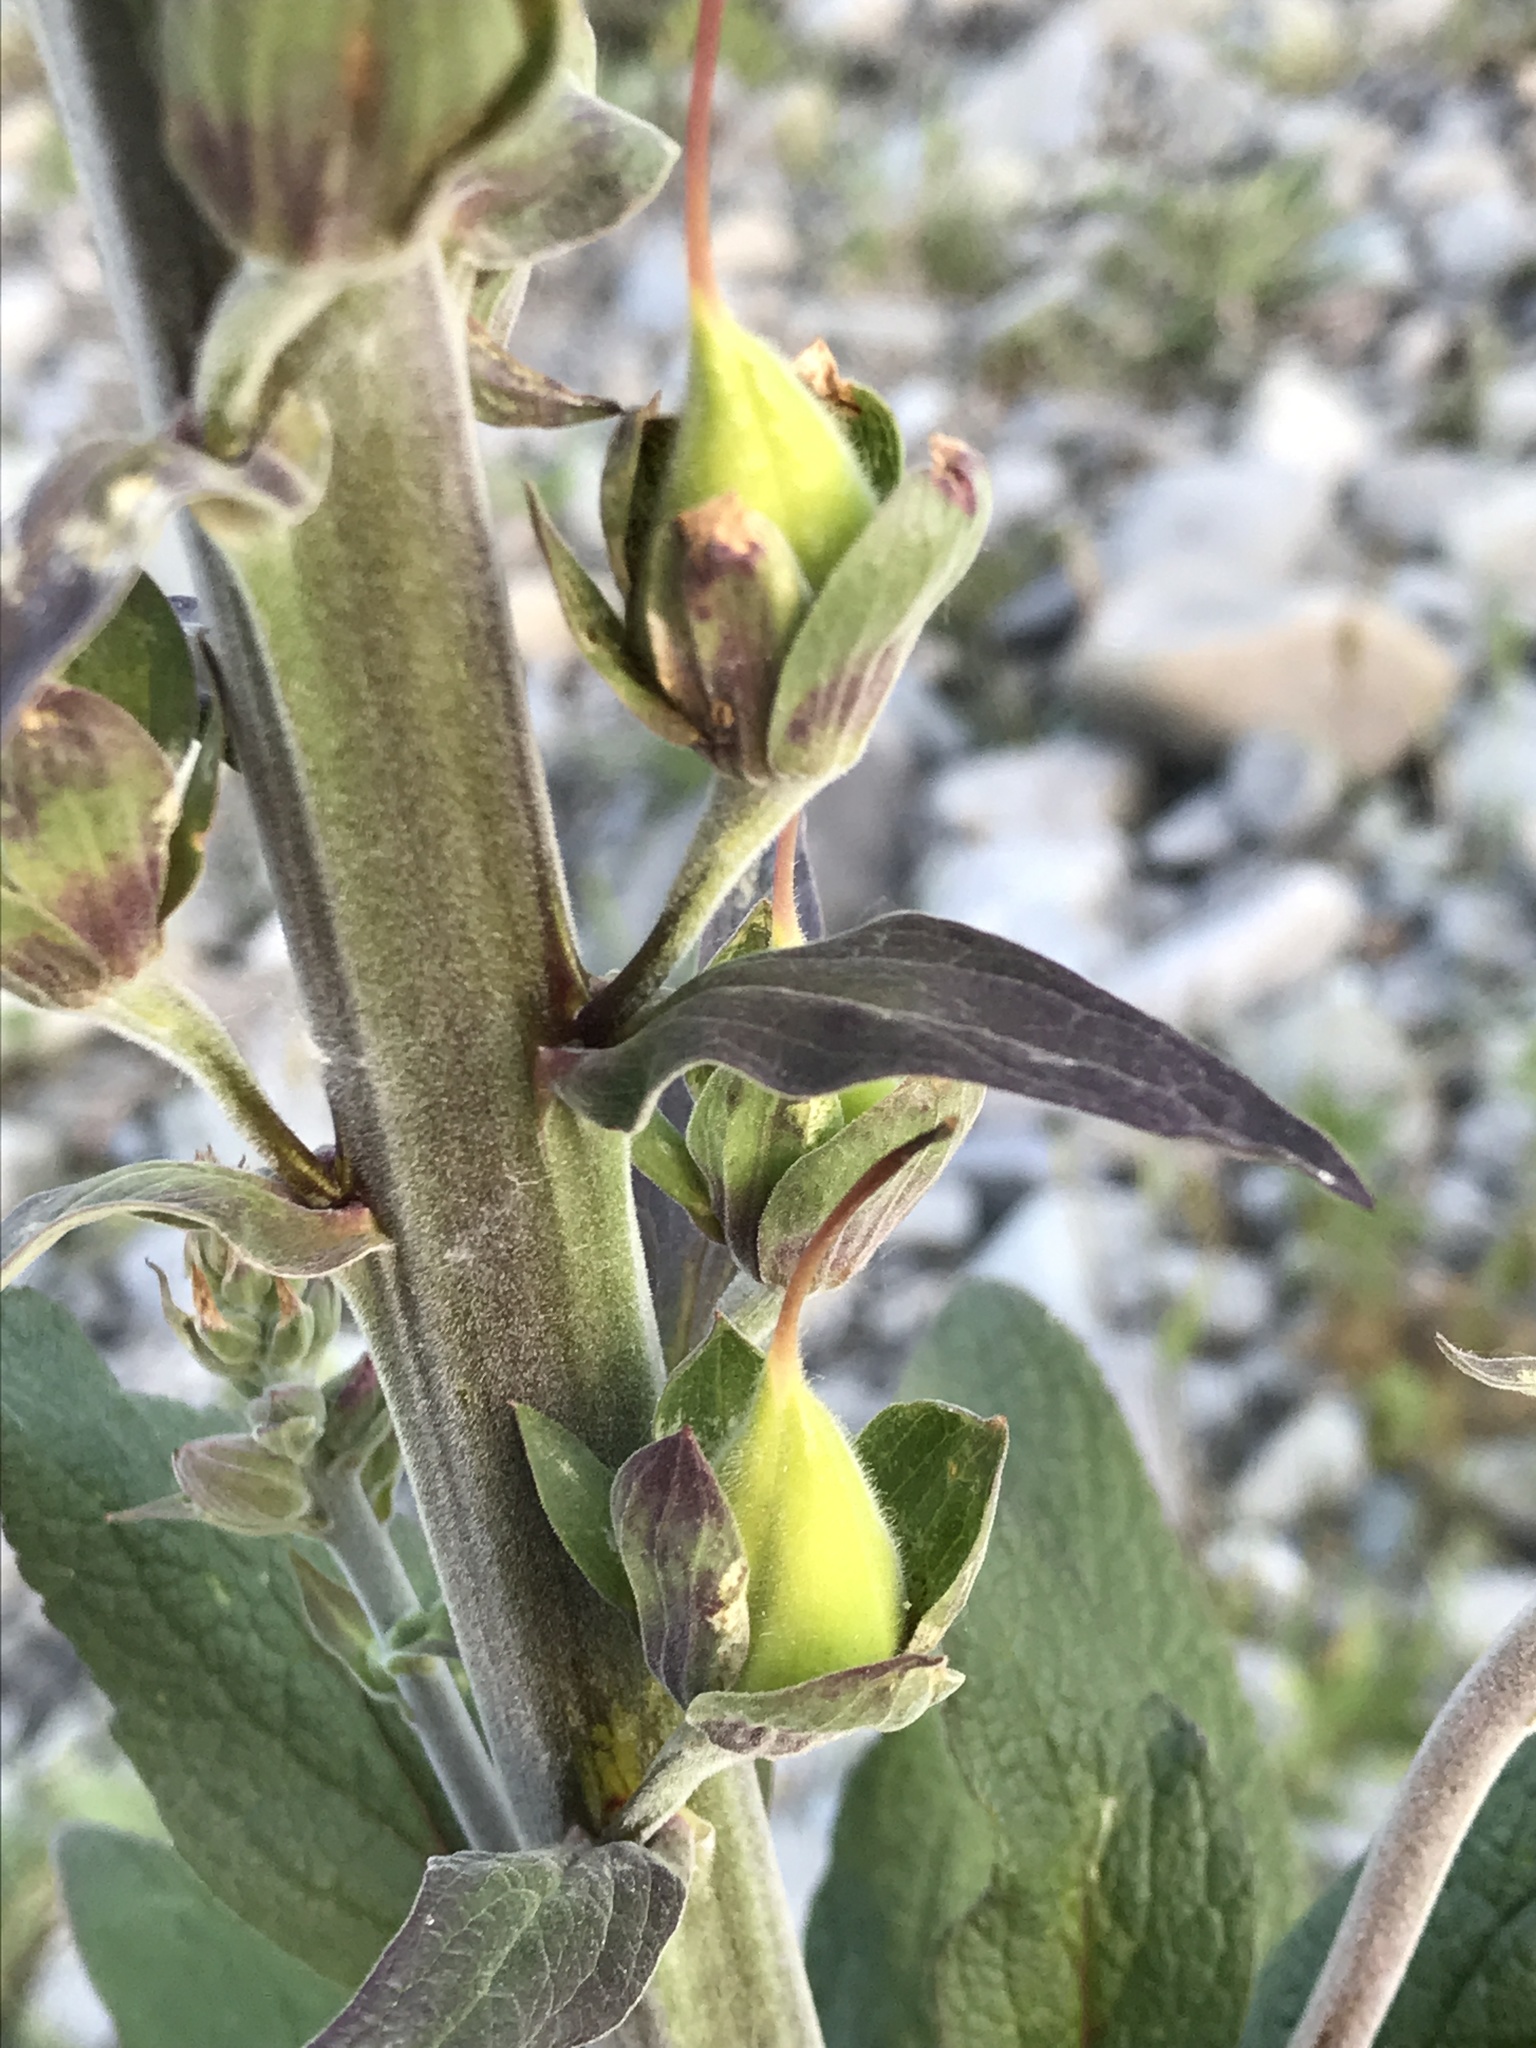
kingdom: Plantae
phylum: Tracheophyta
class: Magnoliopsida
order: Lamiales
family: Plantaginaceae
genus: Digitalis
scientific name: Digitalis purpurea
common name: Foxglove
